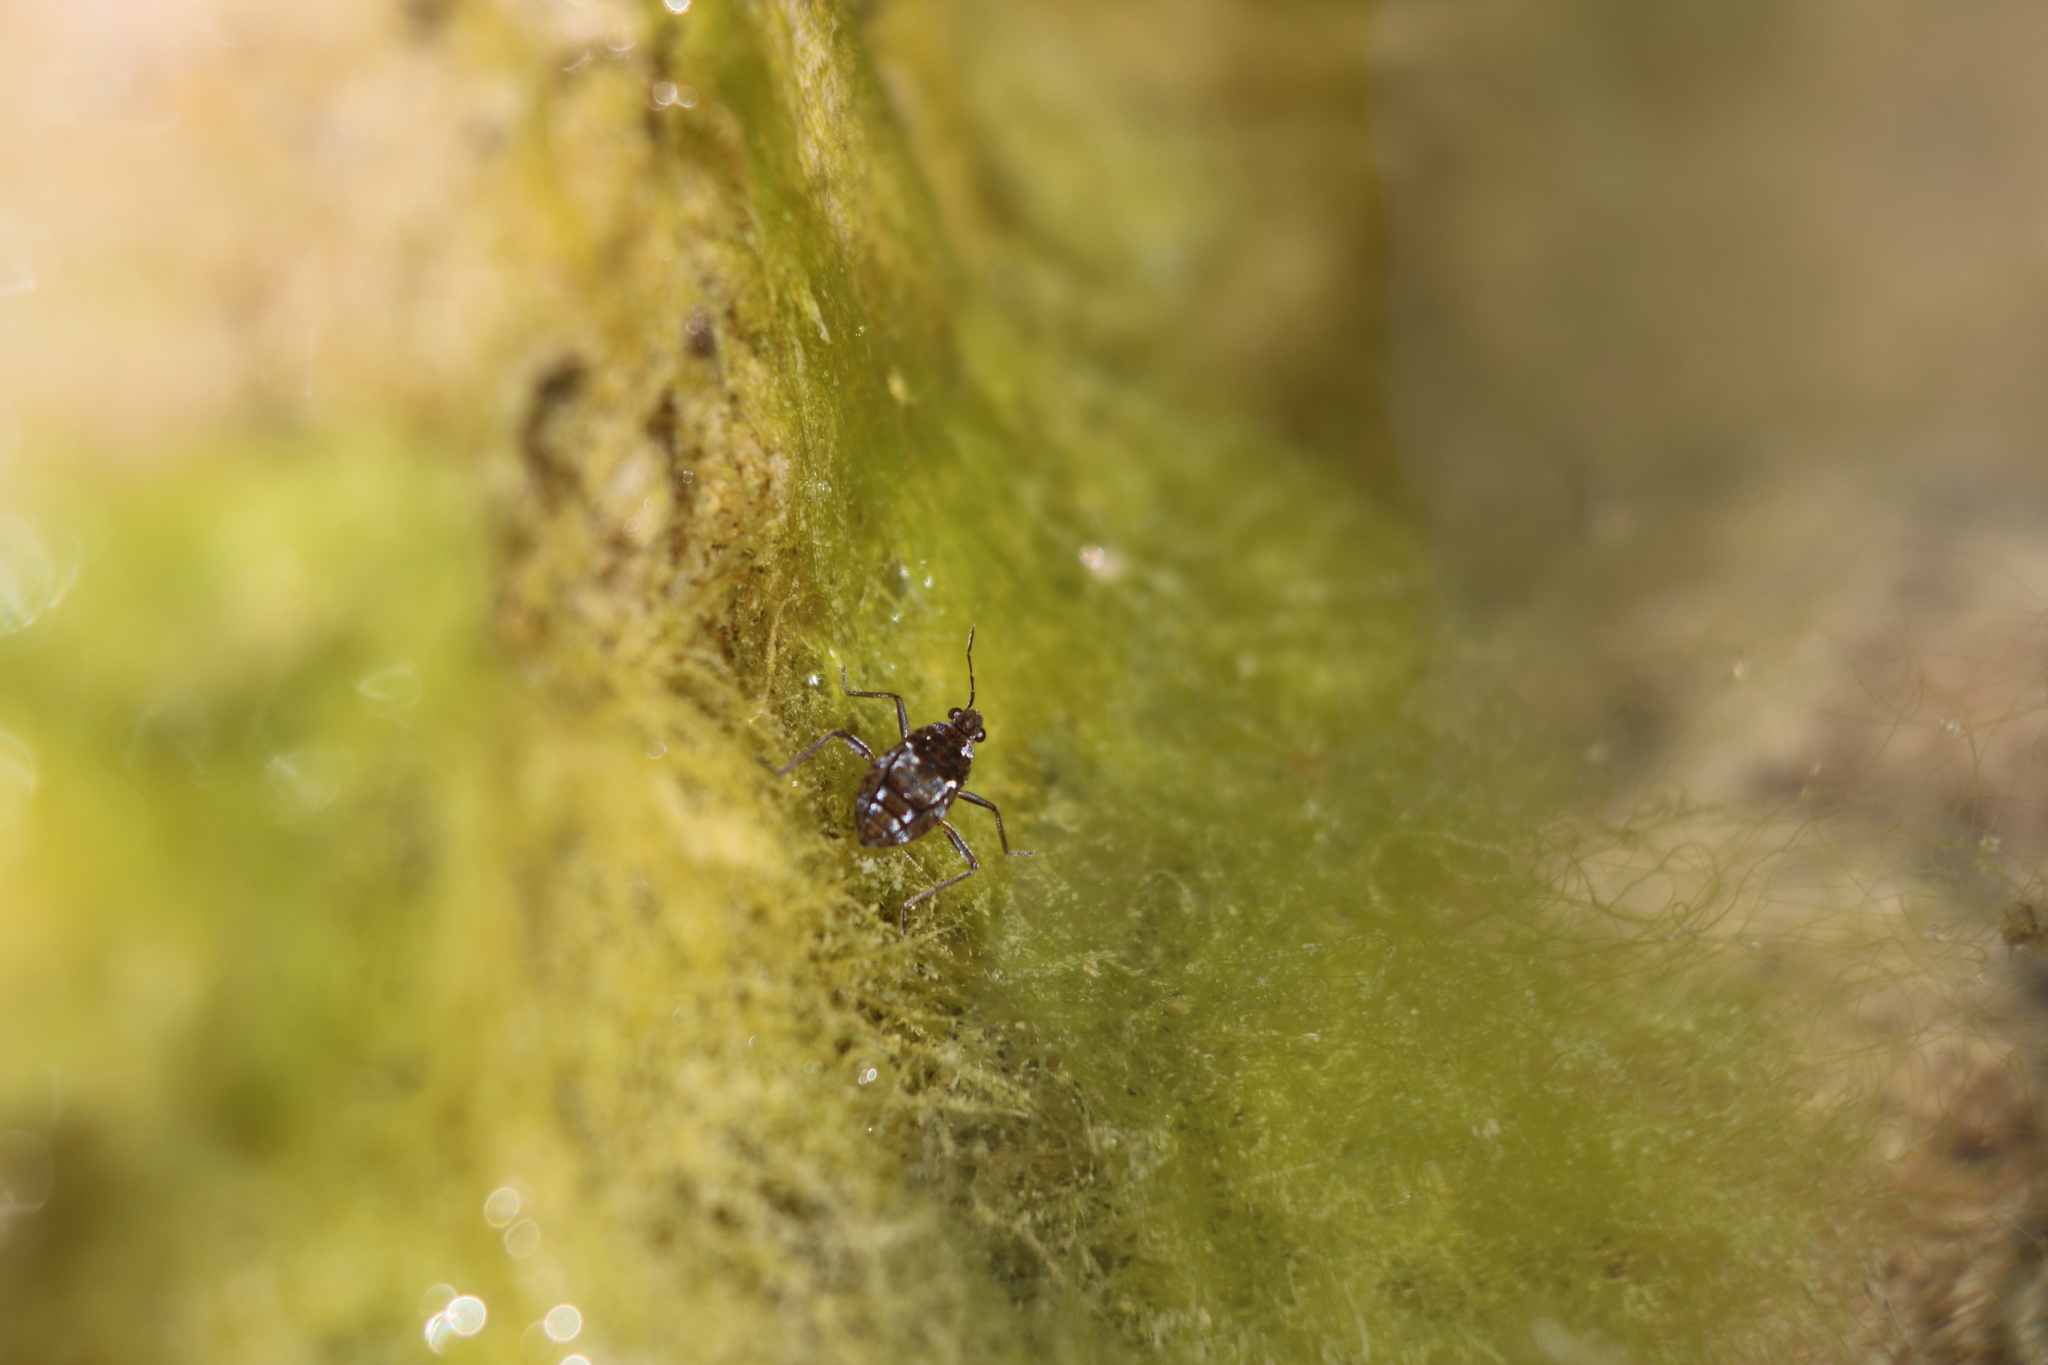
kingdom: Animalia
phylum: Arthropoda
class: Insecta
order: Hemiptera
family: Veliidae
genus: Microvelia
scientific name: Microvelia americana
